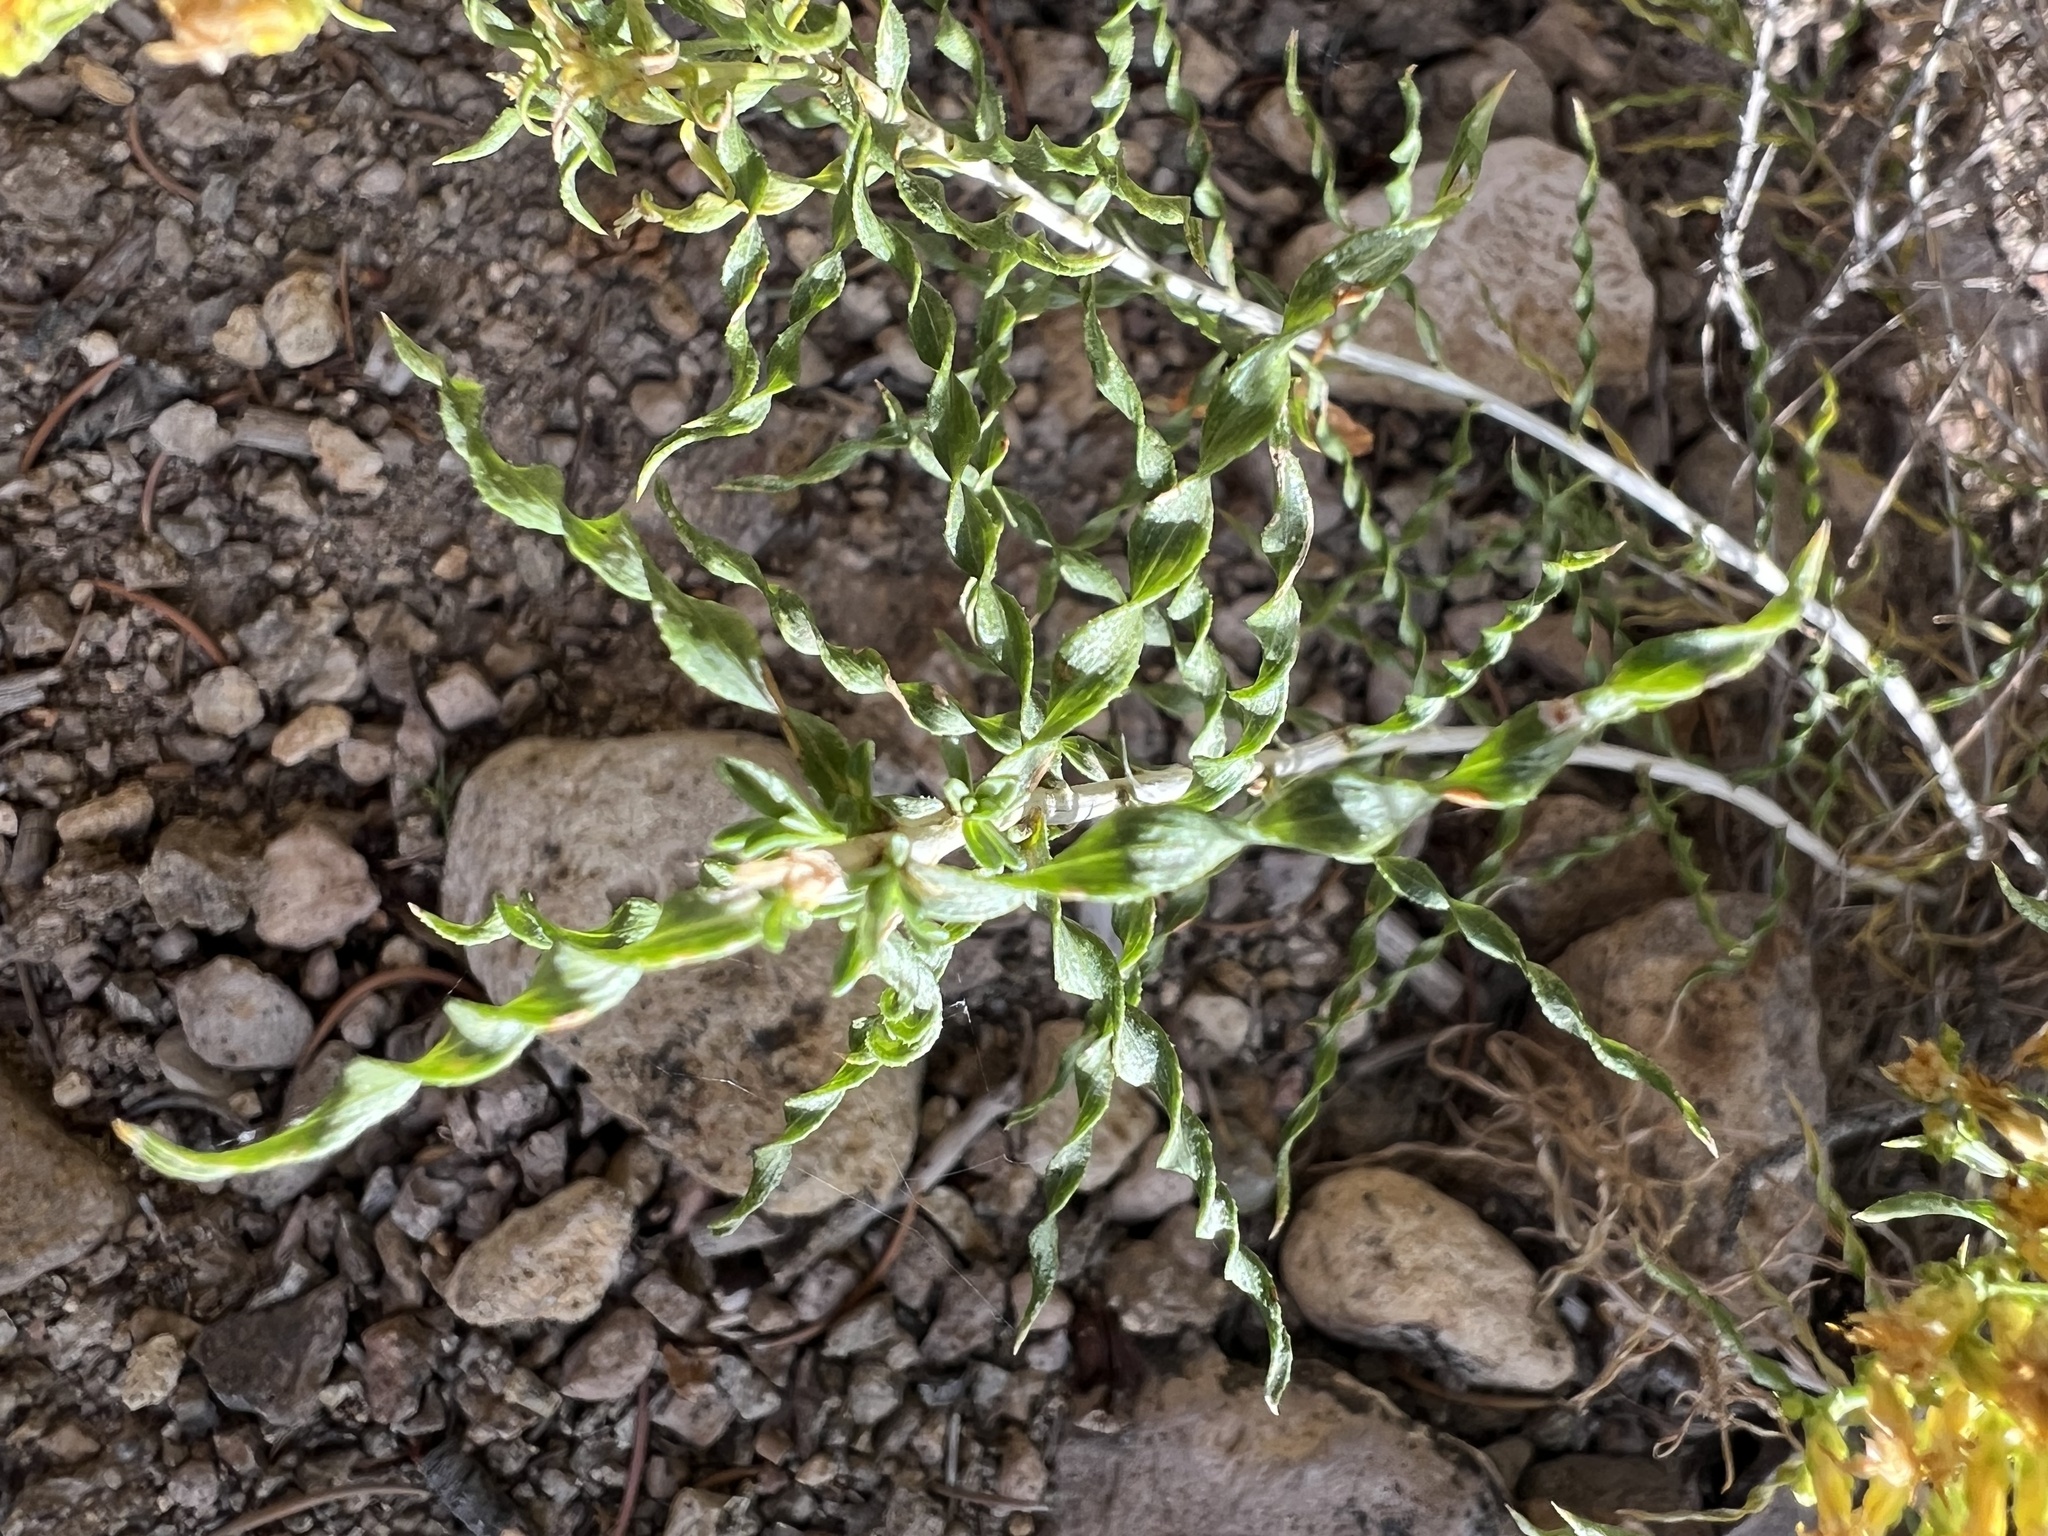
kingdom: Plantae
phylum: Tracheophyta
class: Magnoliopsida
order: Asterales
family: Asteraceae
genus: Chrysothamnus
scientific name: Chrysothamnus viscidiflorus
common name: Yellow rabbitbrush
